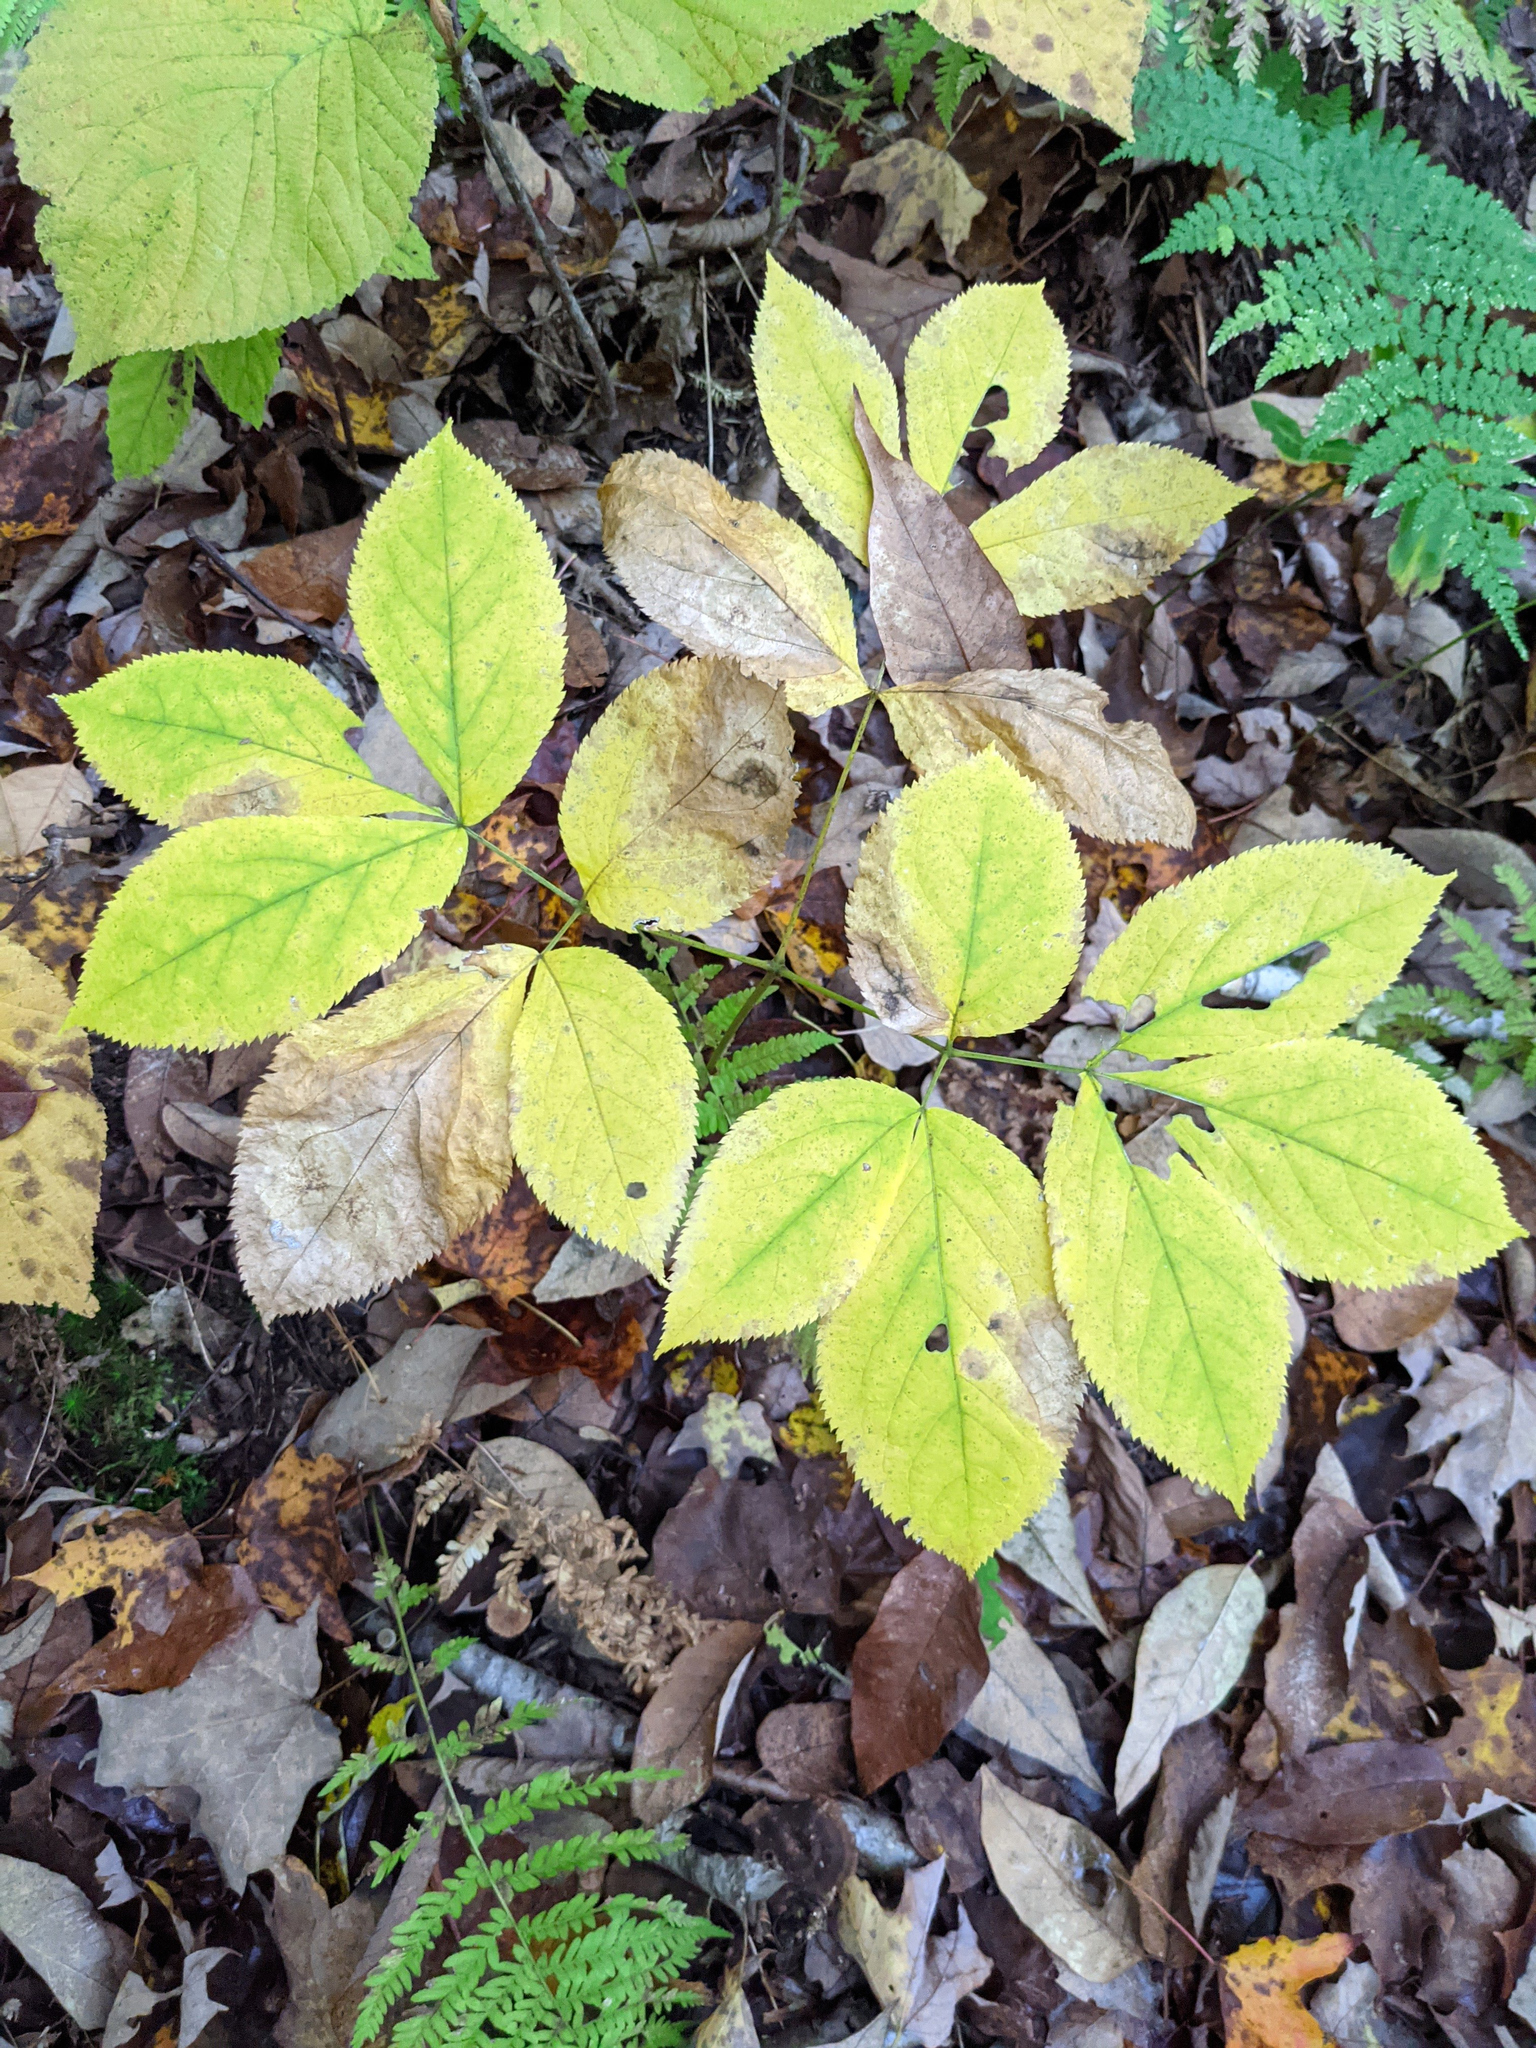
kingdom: Plantae
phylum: Tracheophyta
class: Magnoliopsida
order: Apiales
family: Araliaceae
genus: Aralia
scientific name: Aralia nudicaulis
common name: Wild sarsaparilla
